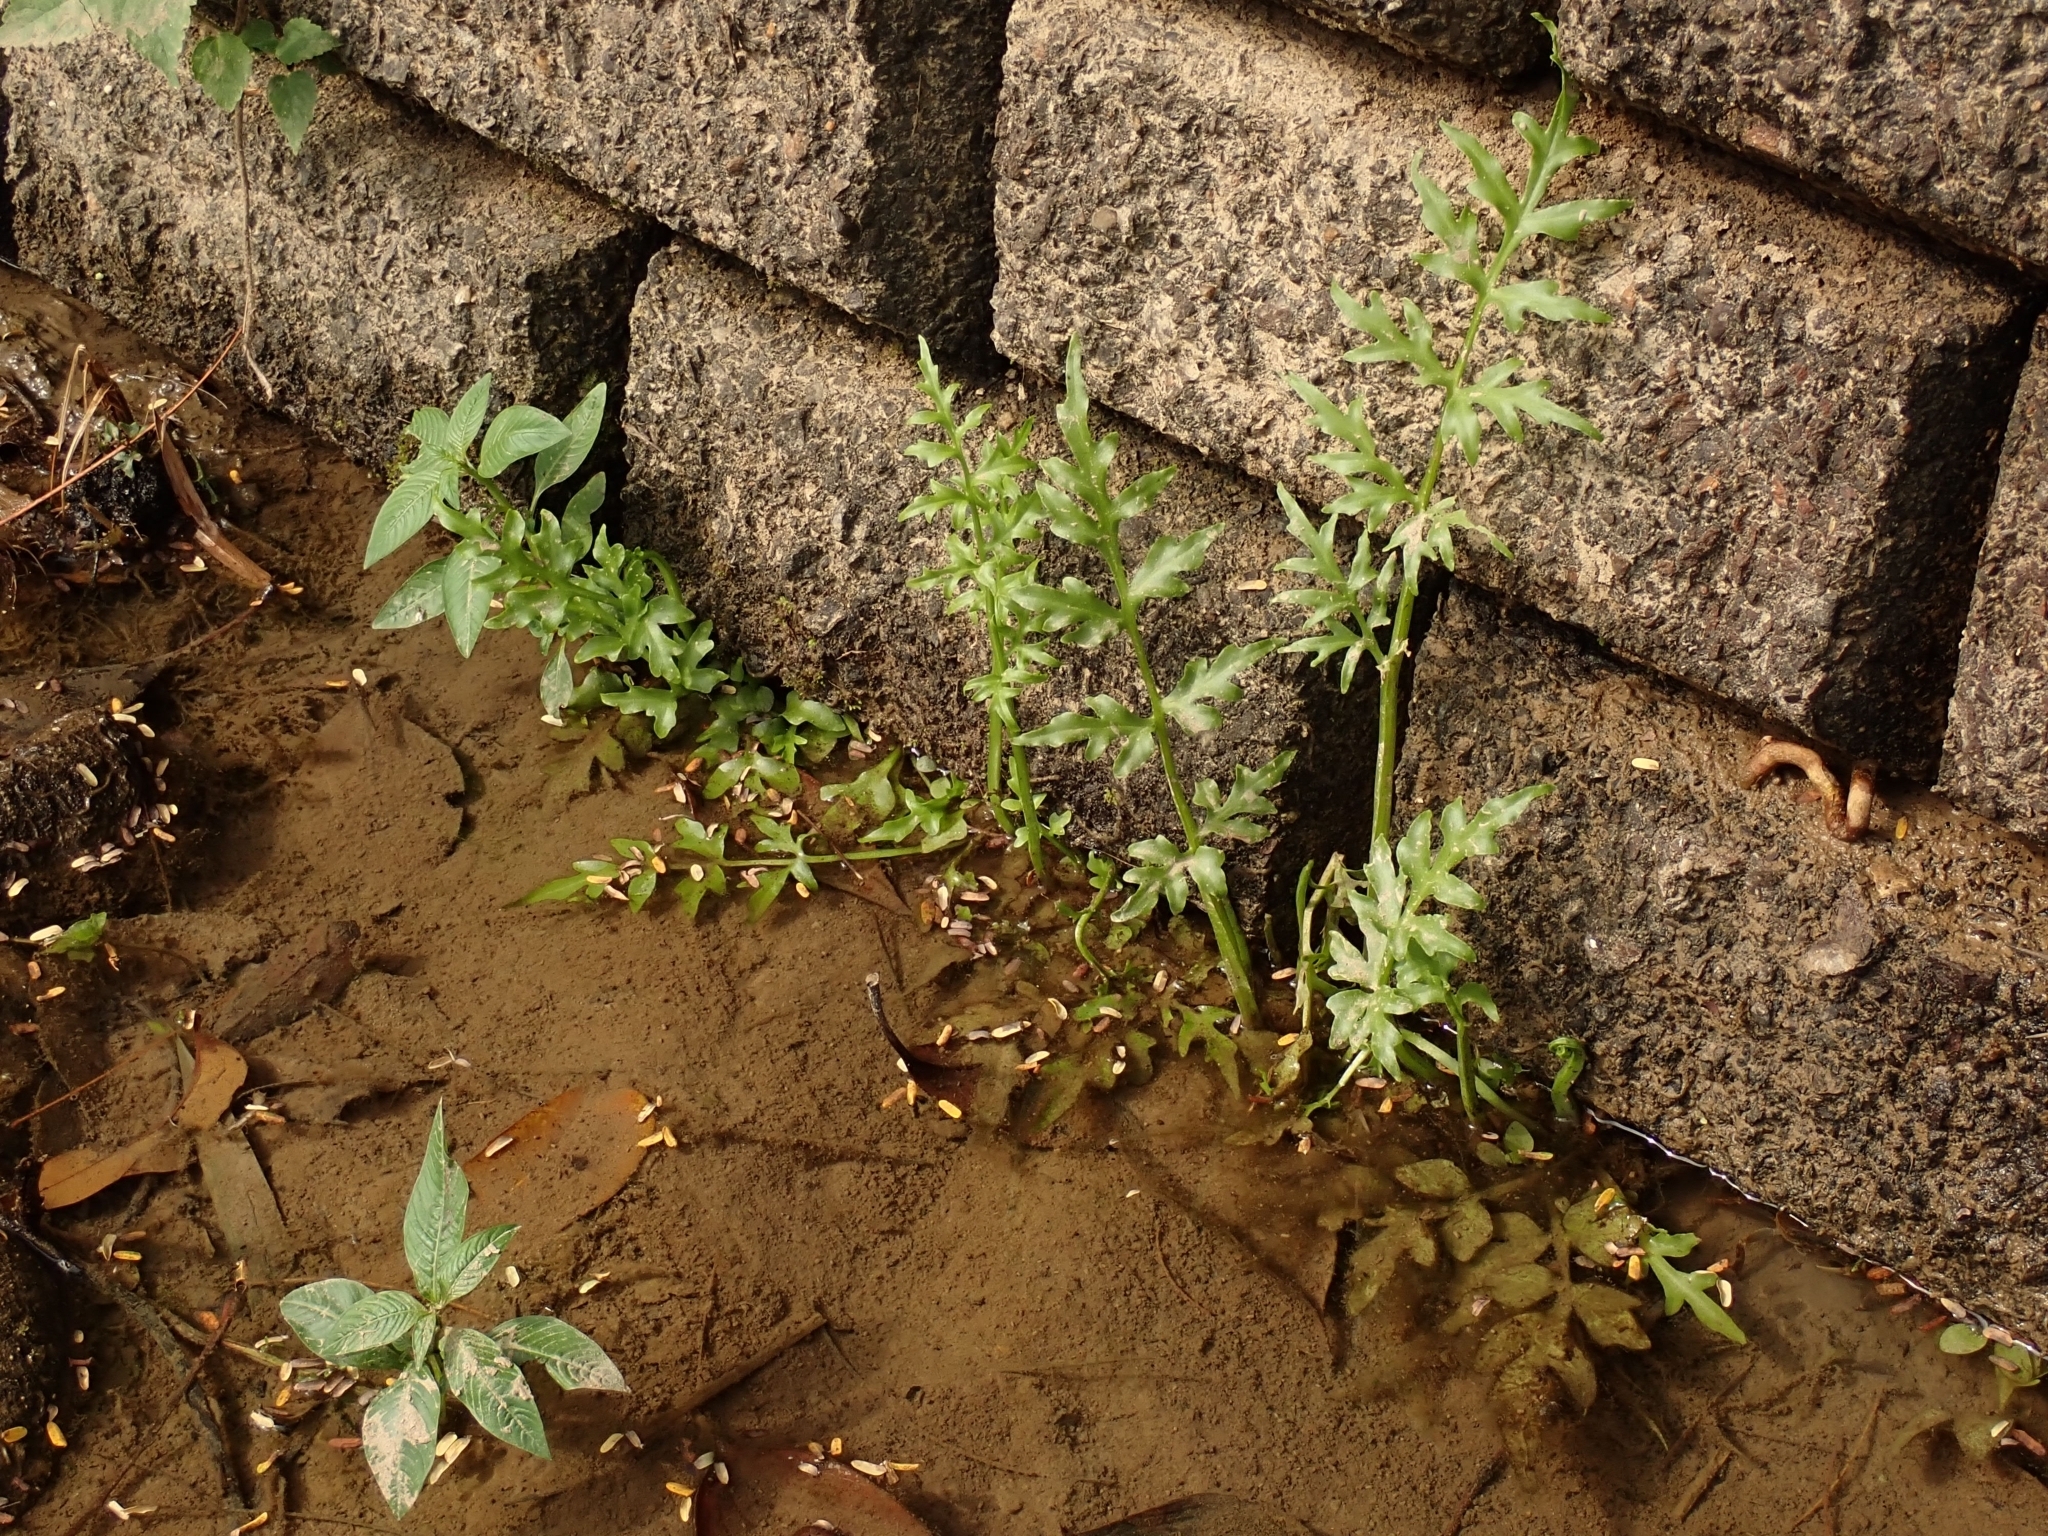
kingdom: Plantae
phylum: Tracheophyta
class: Polypodiopsida
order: Polypodiales
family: Pteridaceae
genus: Ceratopteris
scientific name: Ceratopteris thalictroides
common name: Water fern
